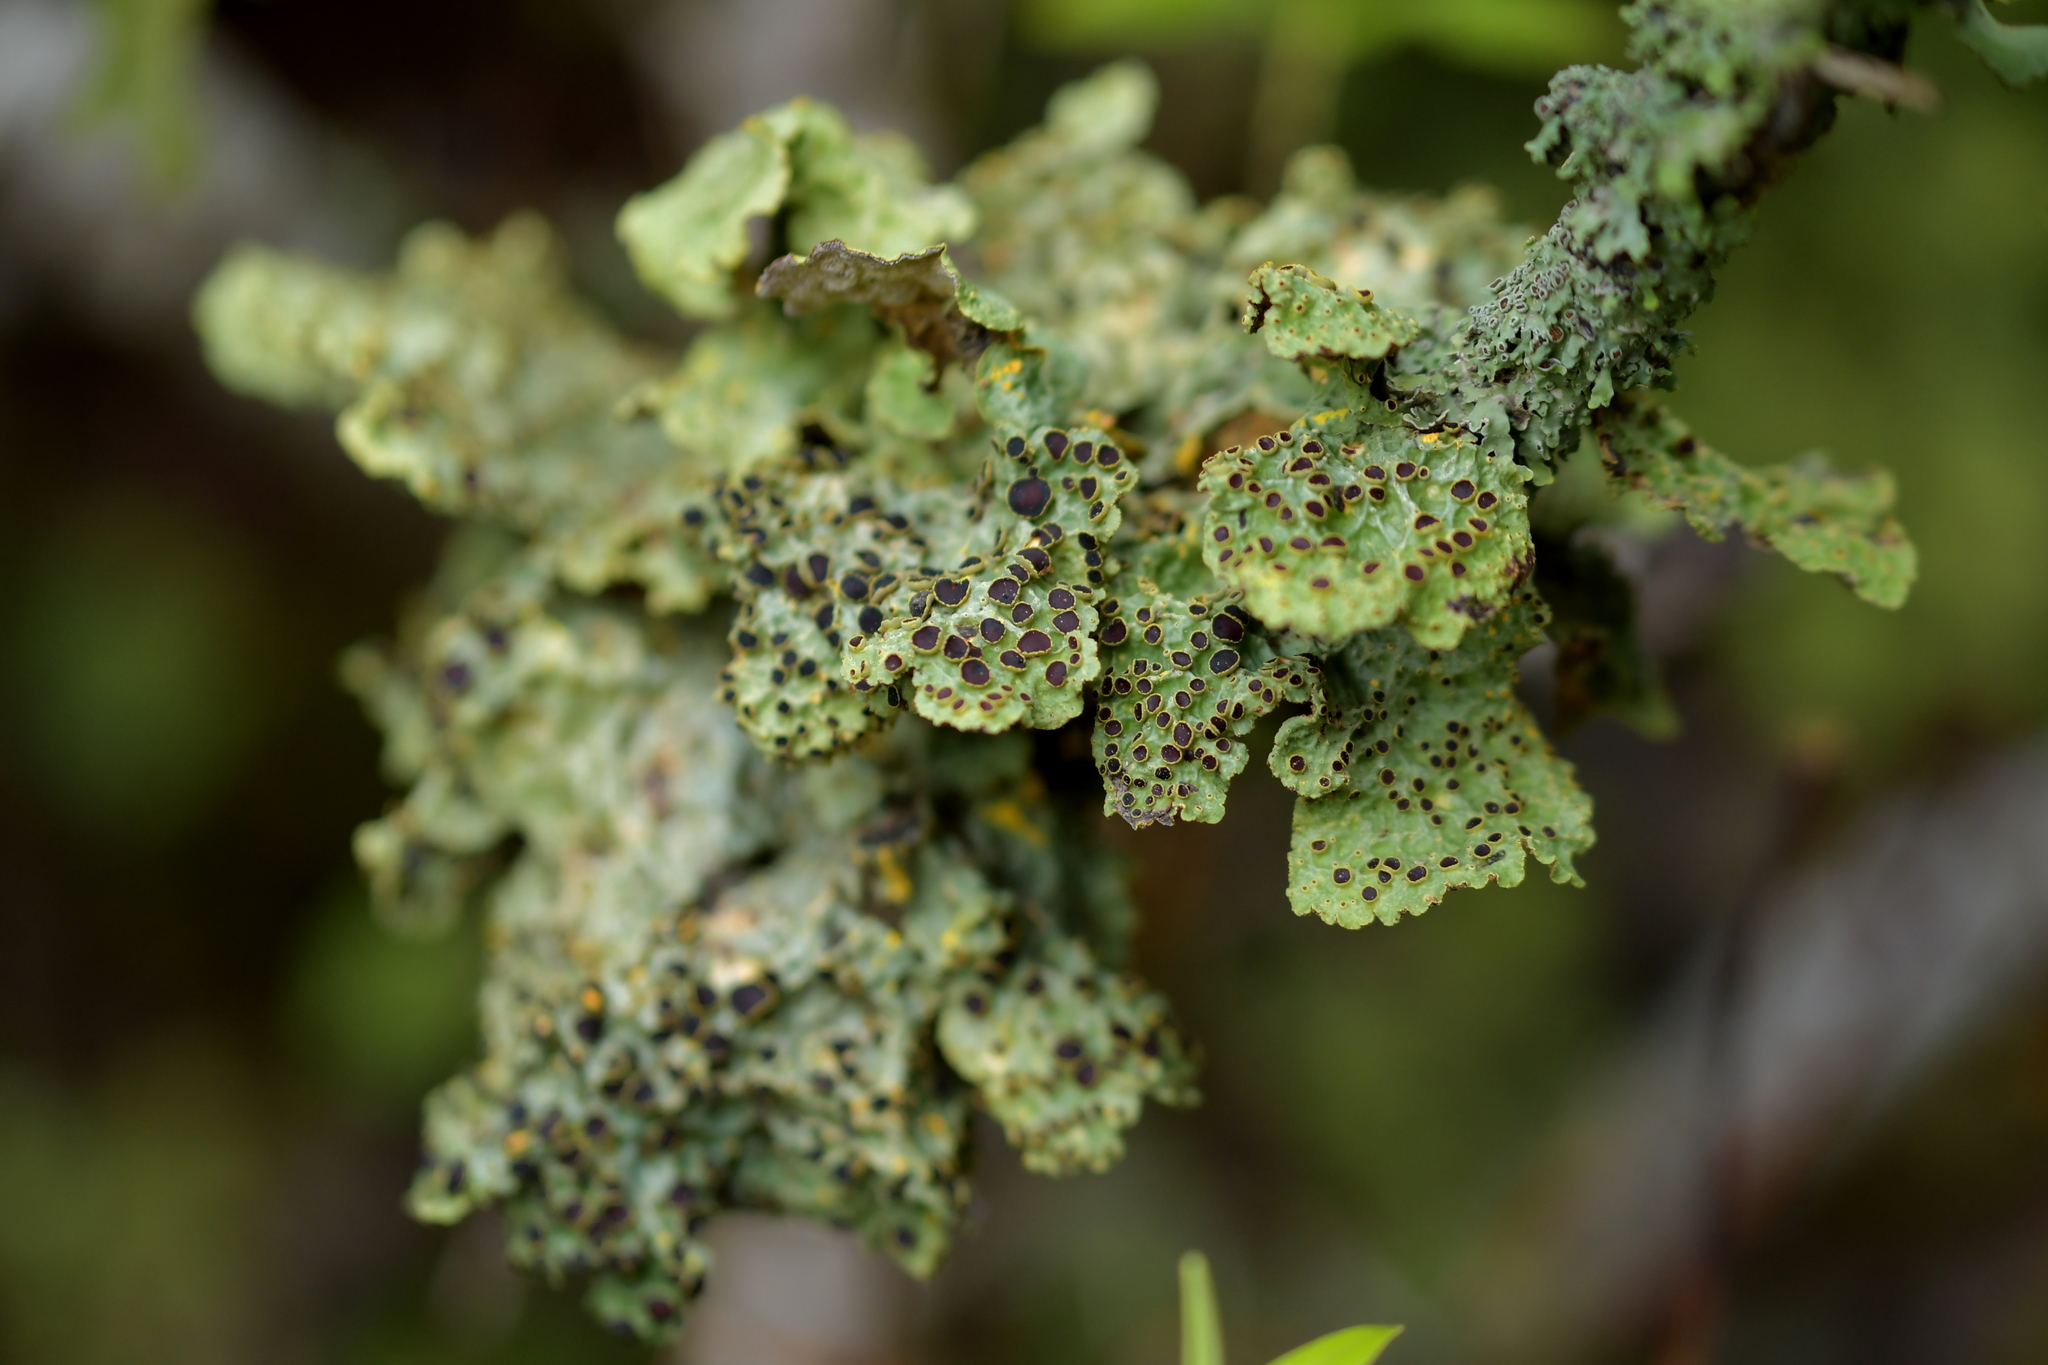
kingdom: Fungi
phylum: Ascomycota
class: Lecanoromycetes
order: Peltigerales
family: Lobariaceae
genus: Yarrumia
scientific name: Yarrumia coronata
